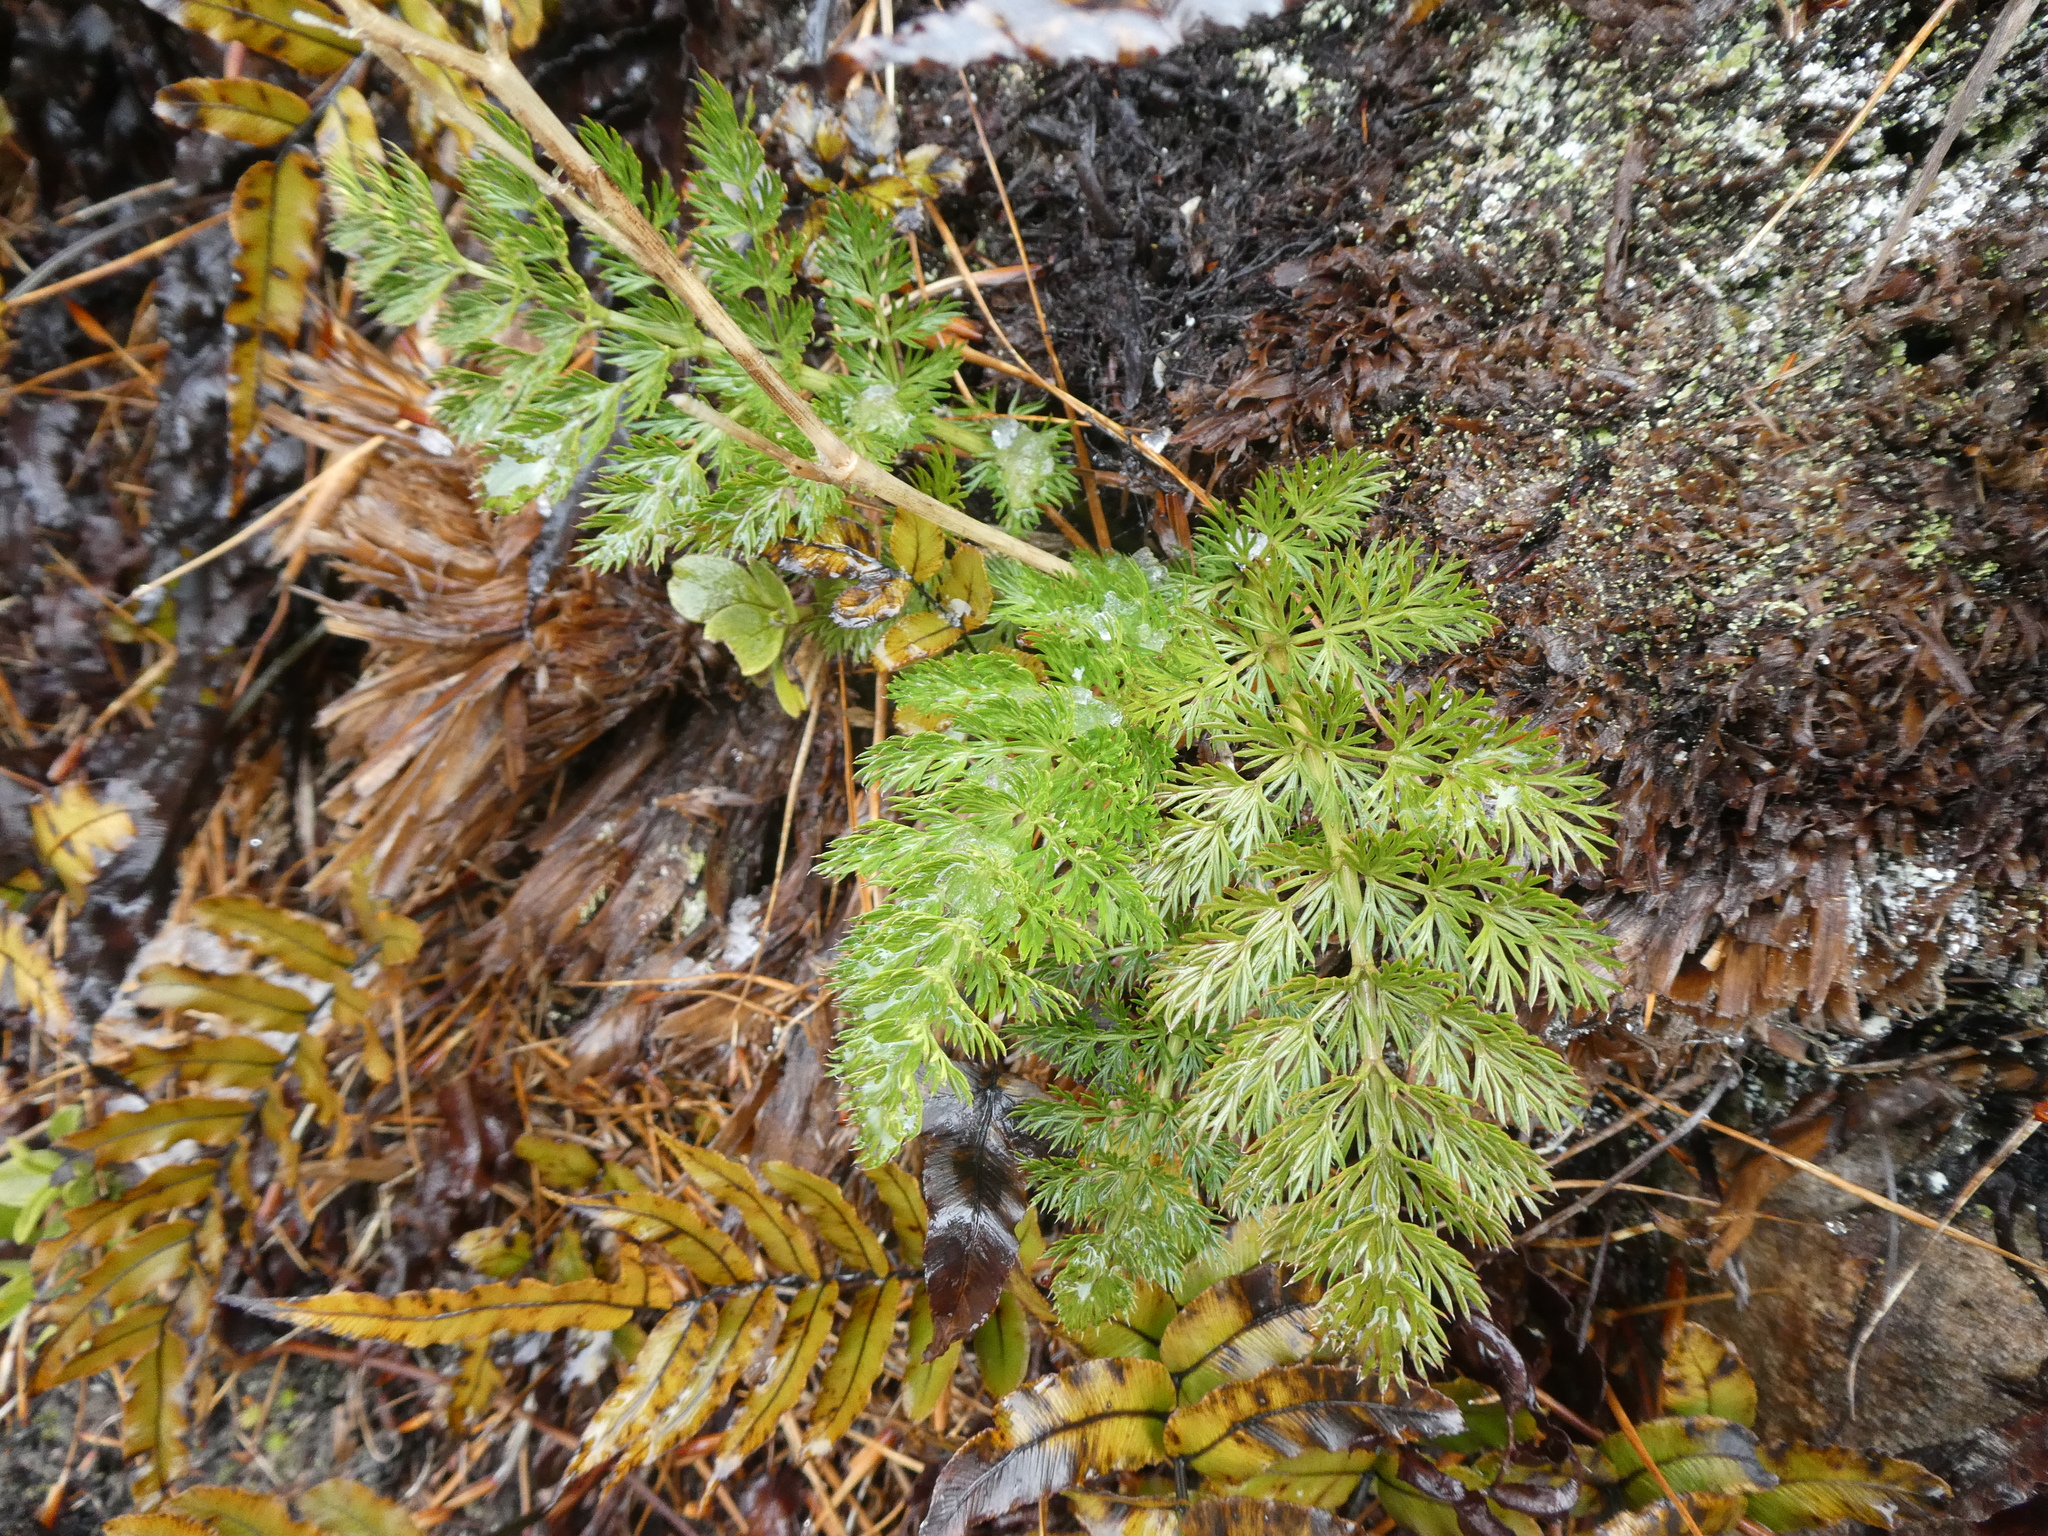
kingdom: Plantae
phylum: Tracheophyta
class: Magnoliopsida
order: Apiales
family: Apiaceae
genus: Anisotome
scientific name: Anisotome haastii
